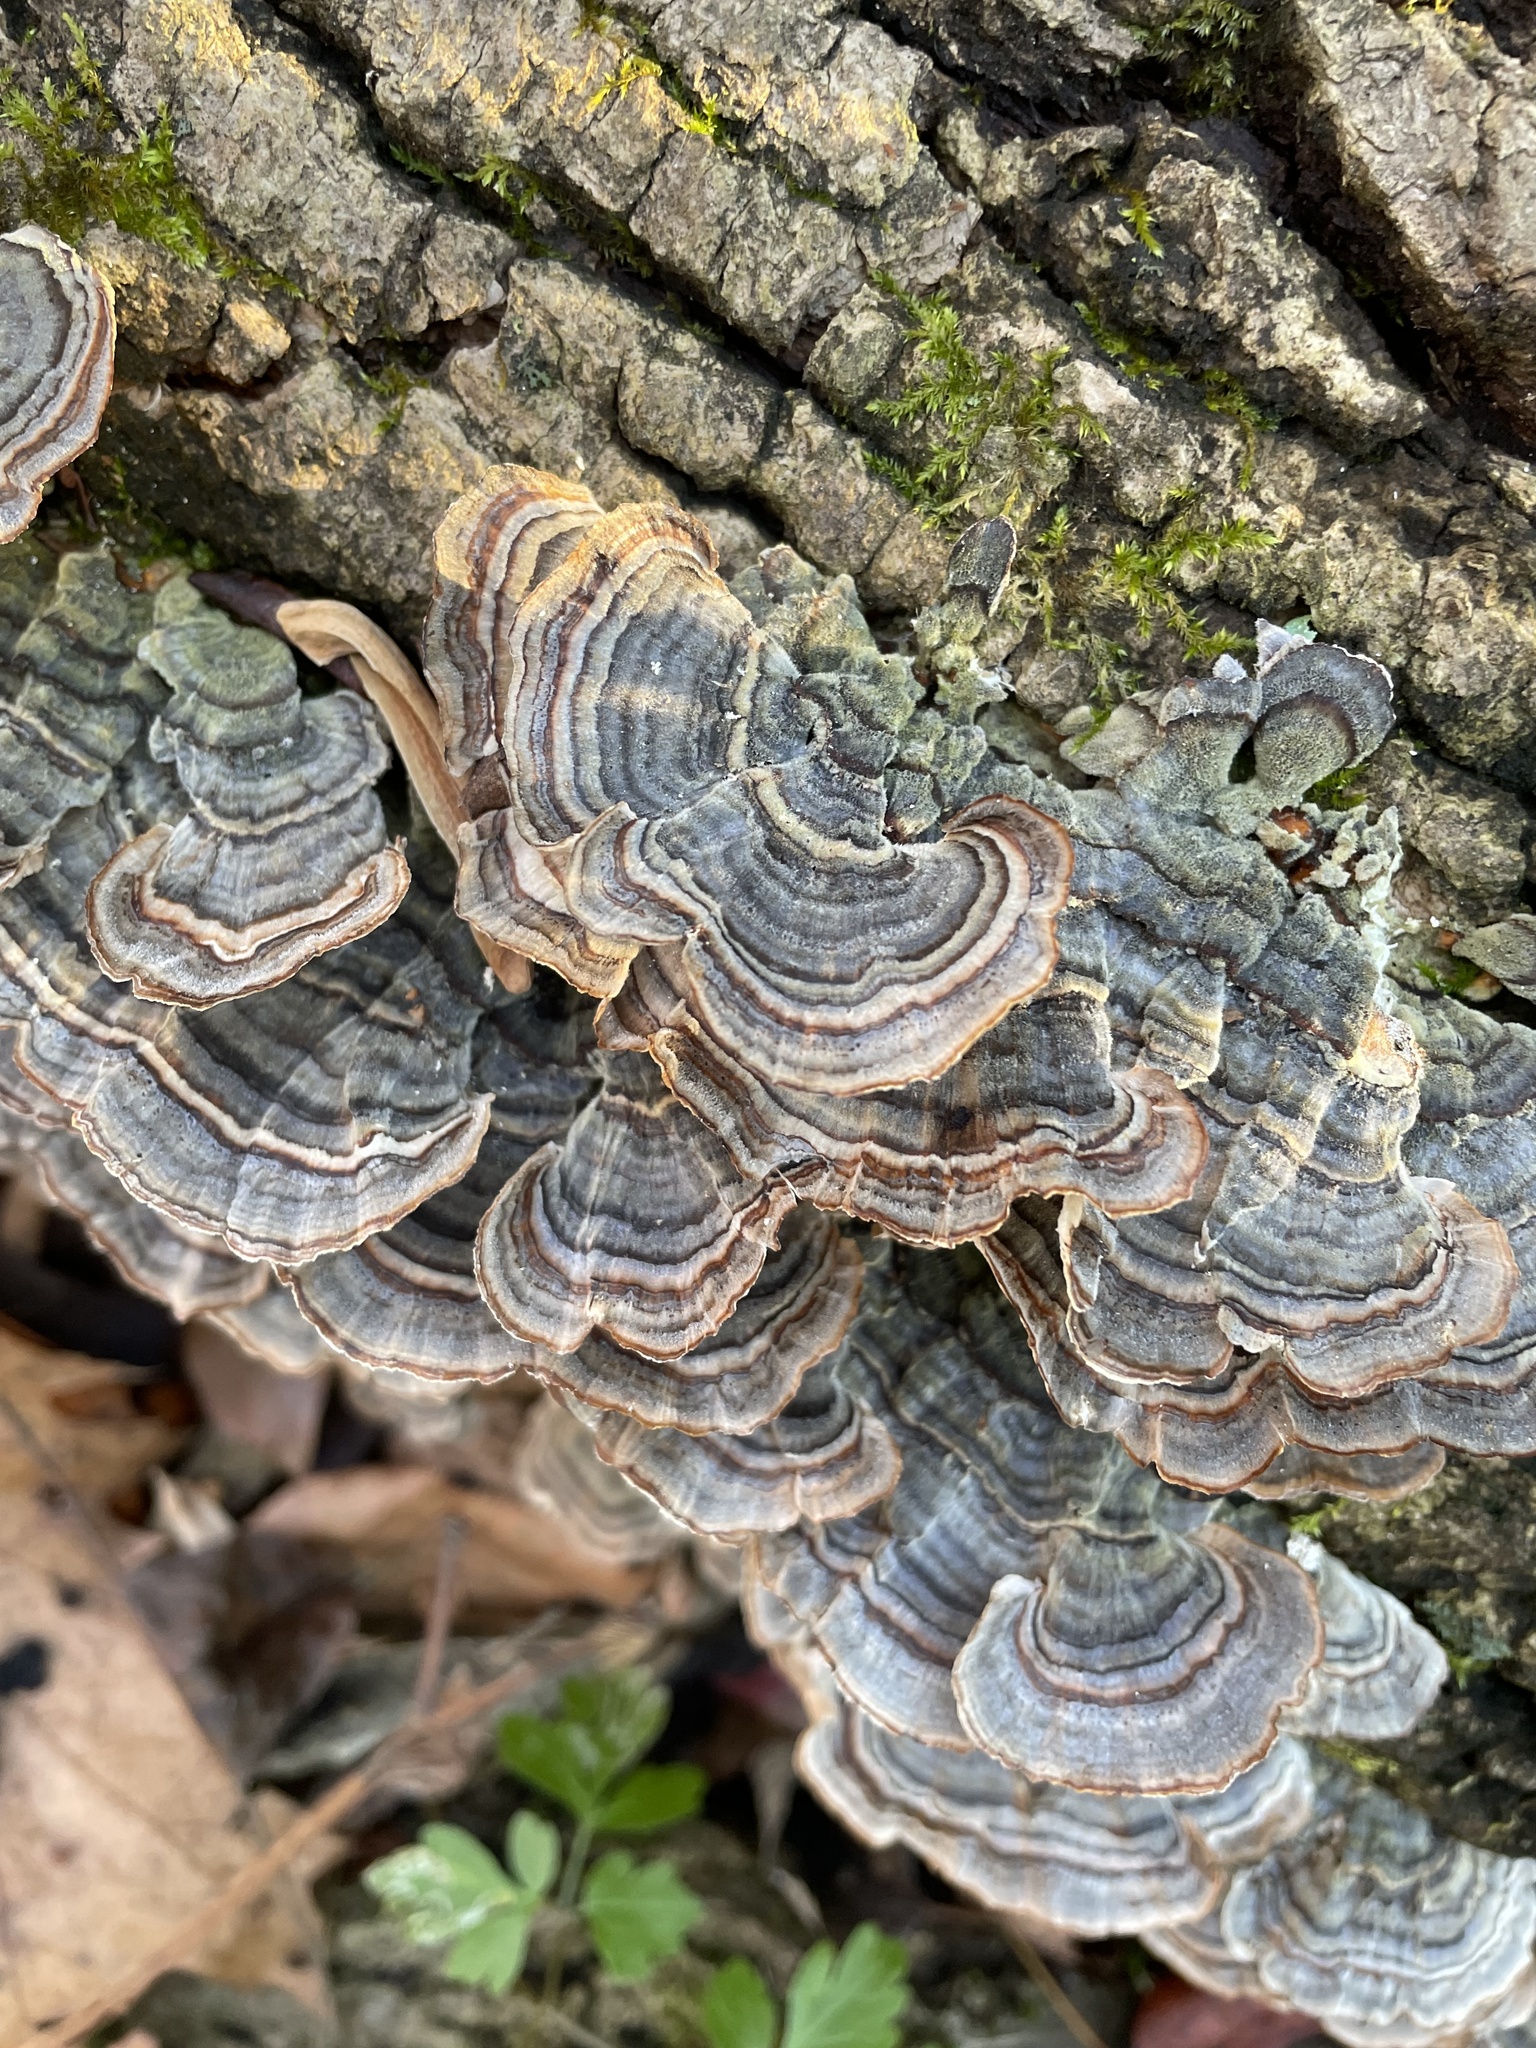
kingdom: Fungi
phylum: Basidiomycota
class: Agaricomycetes
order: Polyporales
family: Polyporaceae
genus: Trametes
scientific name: Trametes versicolor
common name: Turkeytail
